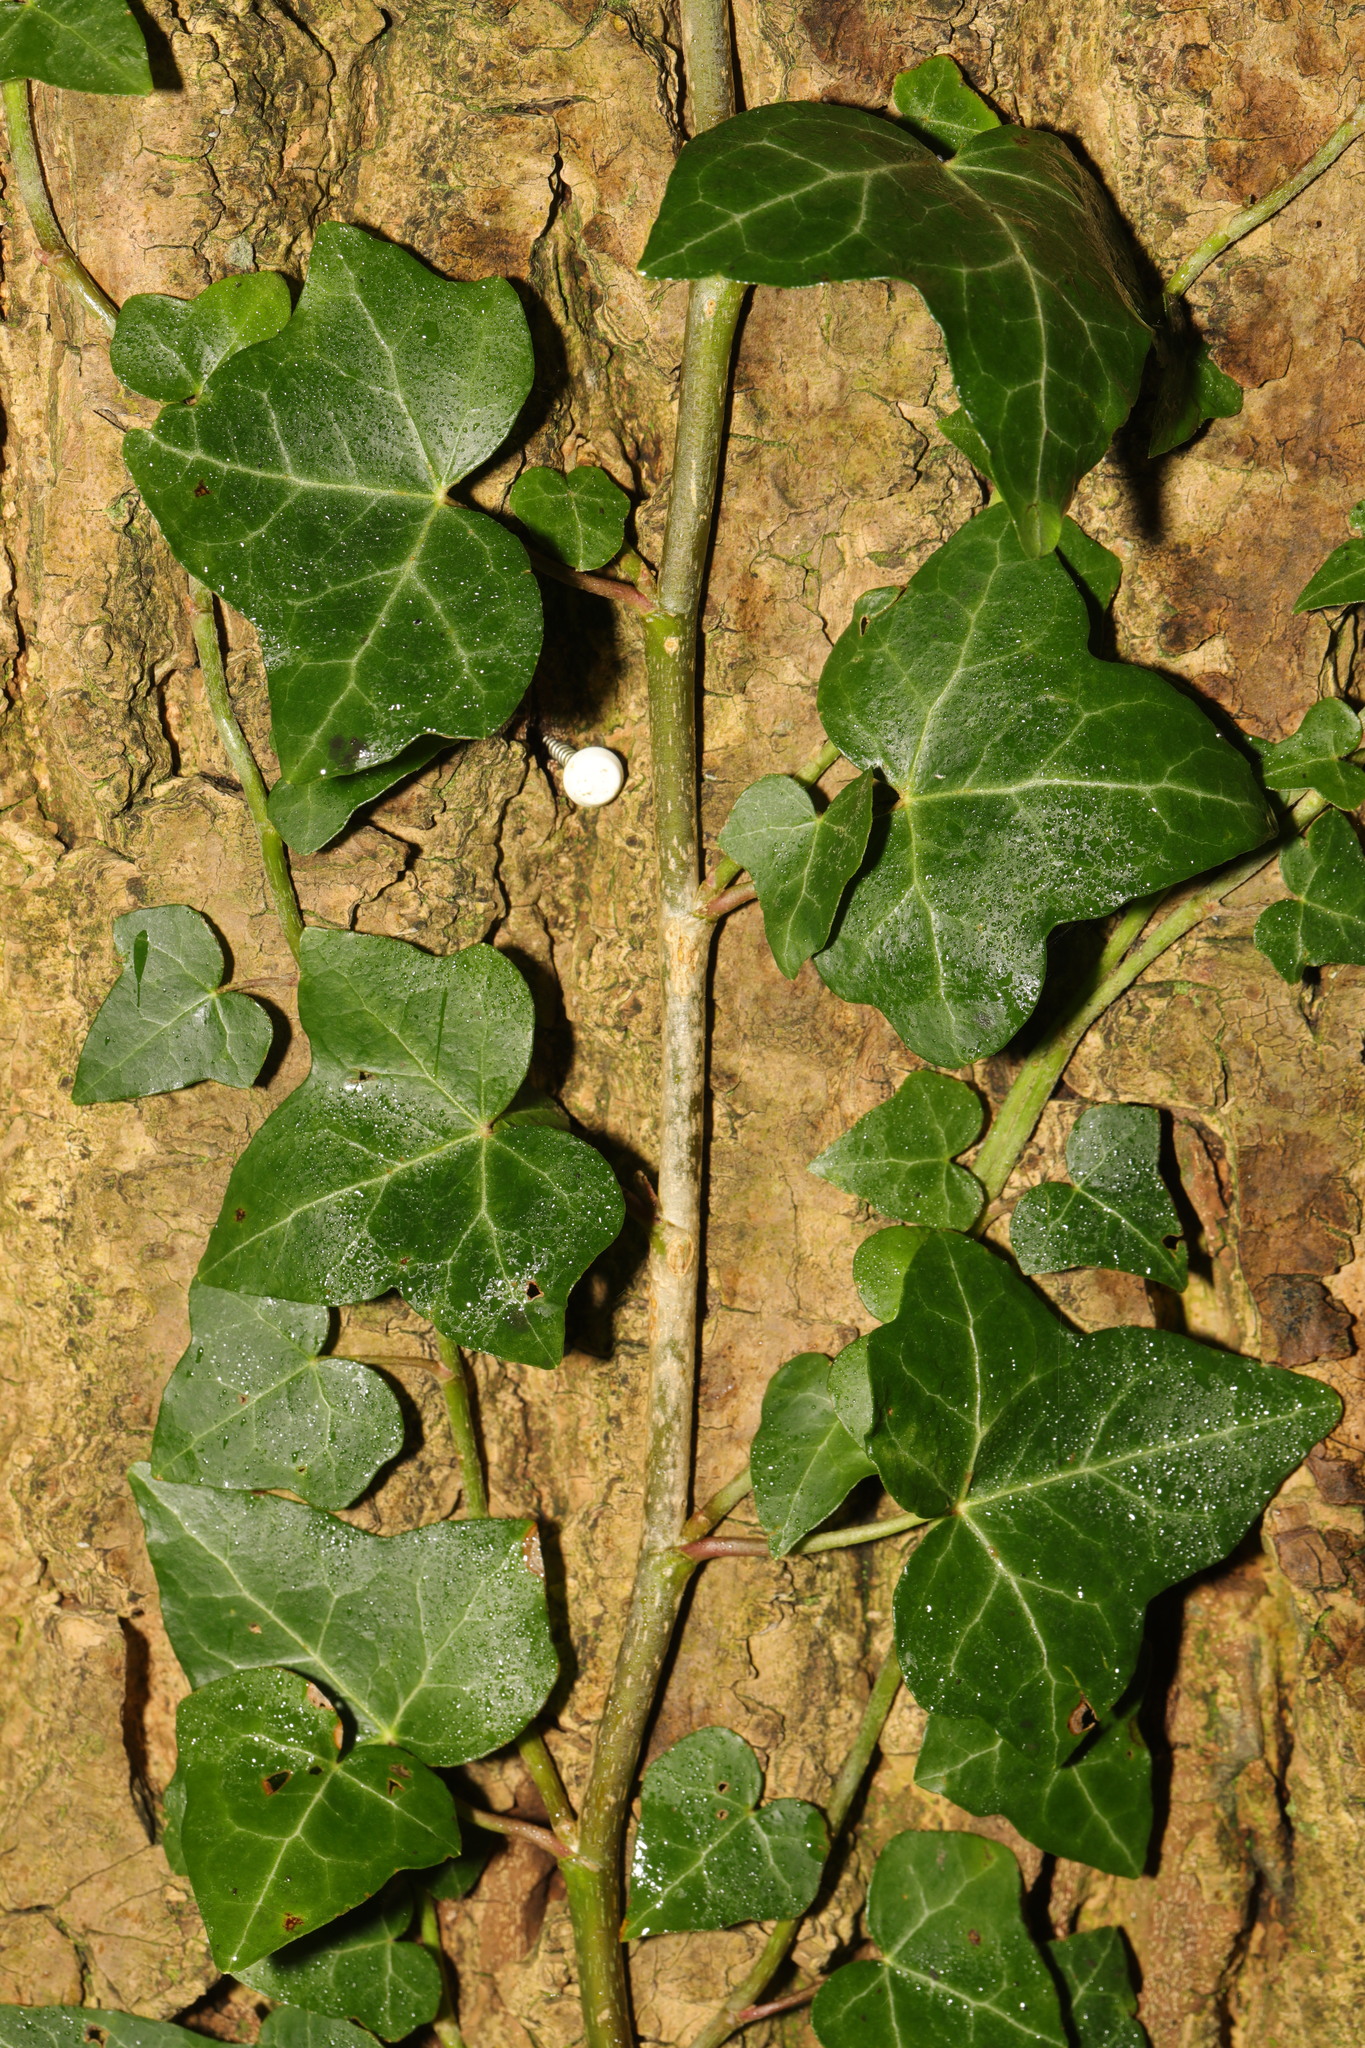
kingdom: Plantae
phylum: Tracheophyta
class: Magnoliopsida
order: Apiales
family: Araliaceae
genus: Hedera
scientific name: Hedera helix
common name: Ivy
